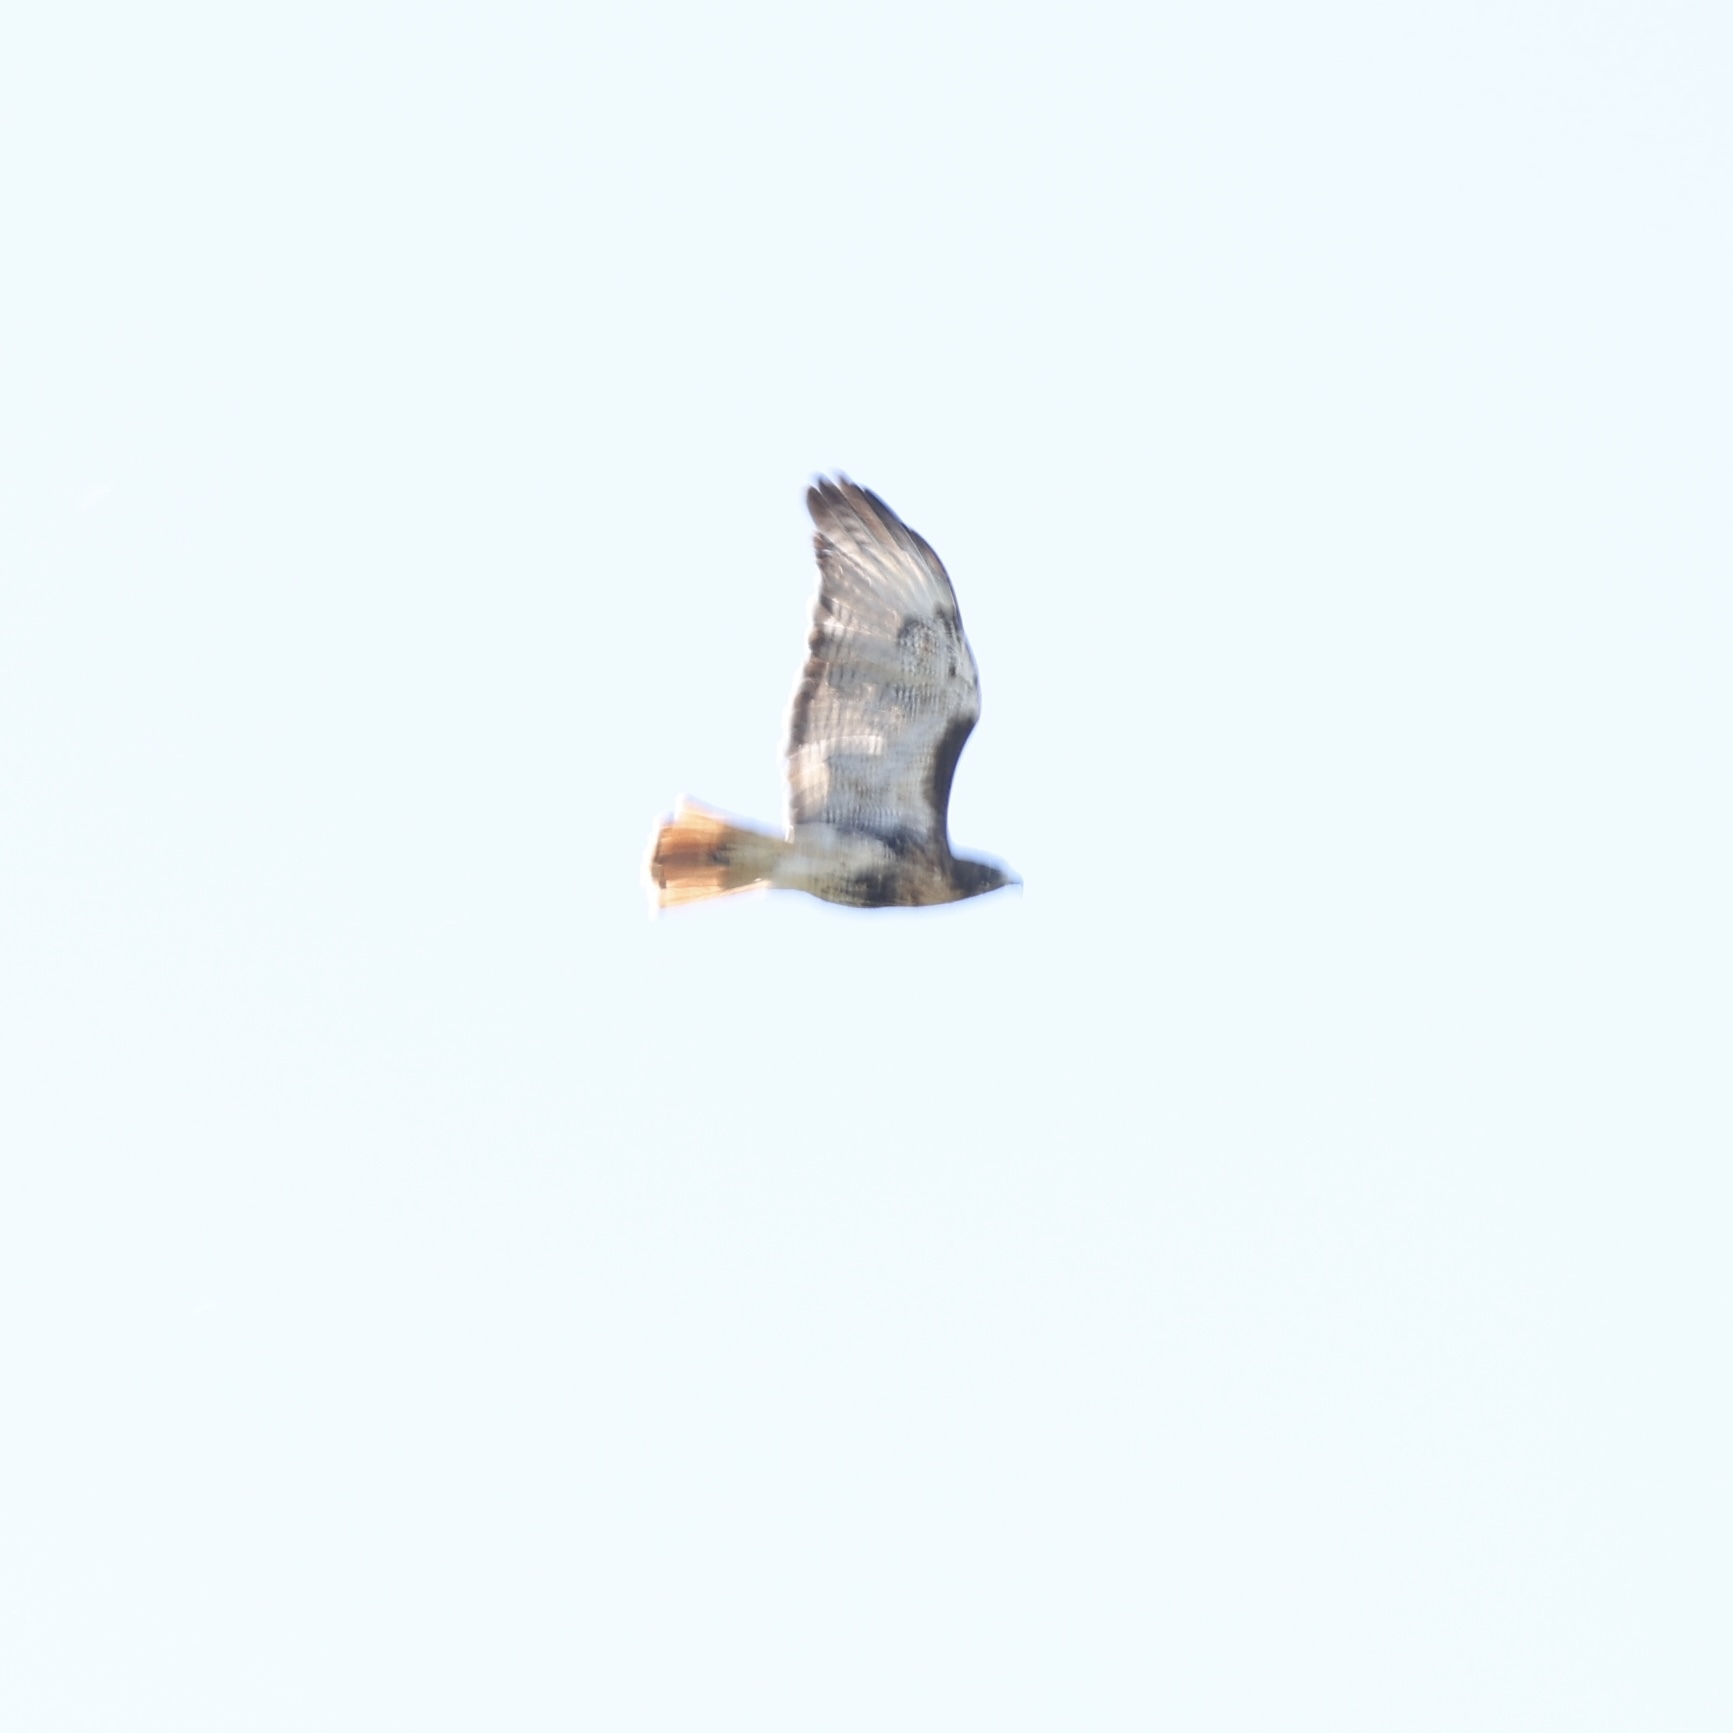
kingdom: Animalia
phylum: Chordata
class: Aves
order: Accipitriformes
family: Accipitridae
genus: Buteo
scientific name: Buteo jamaicensis
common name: Red-tailed hawk
